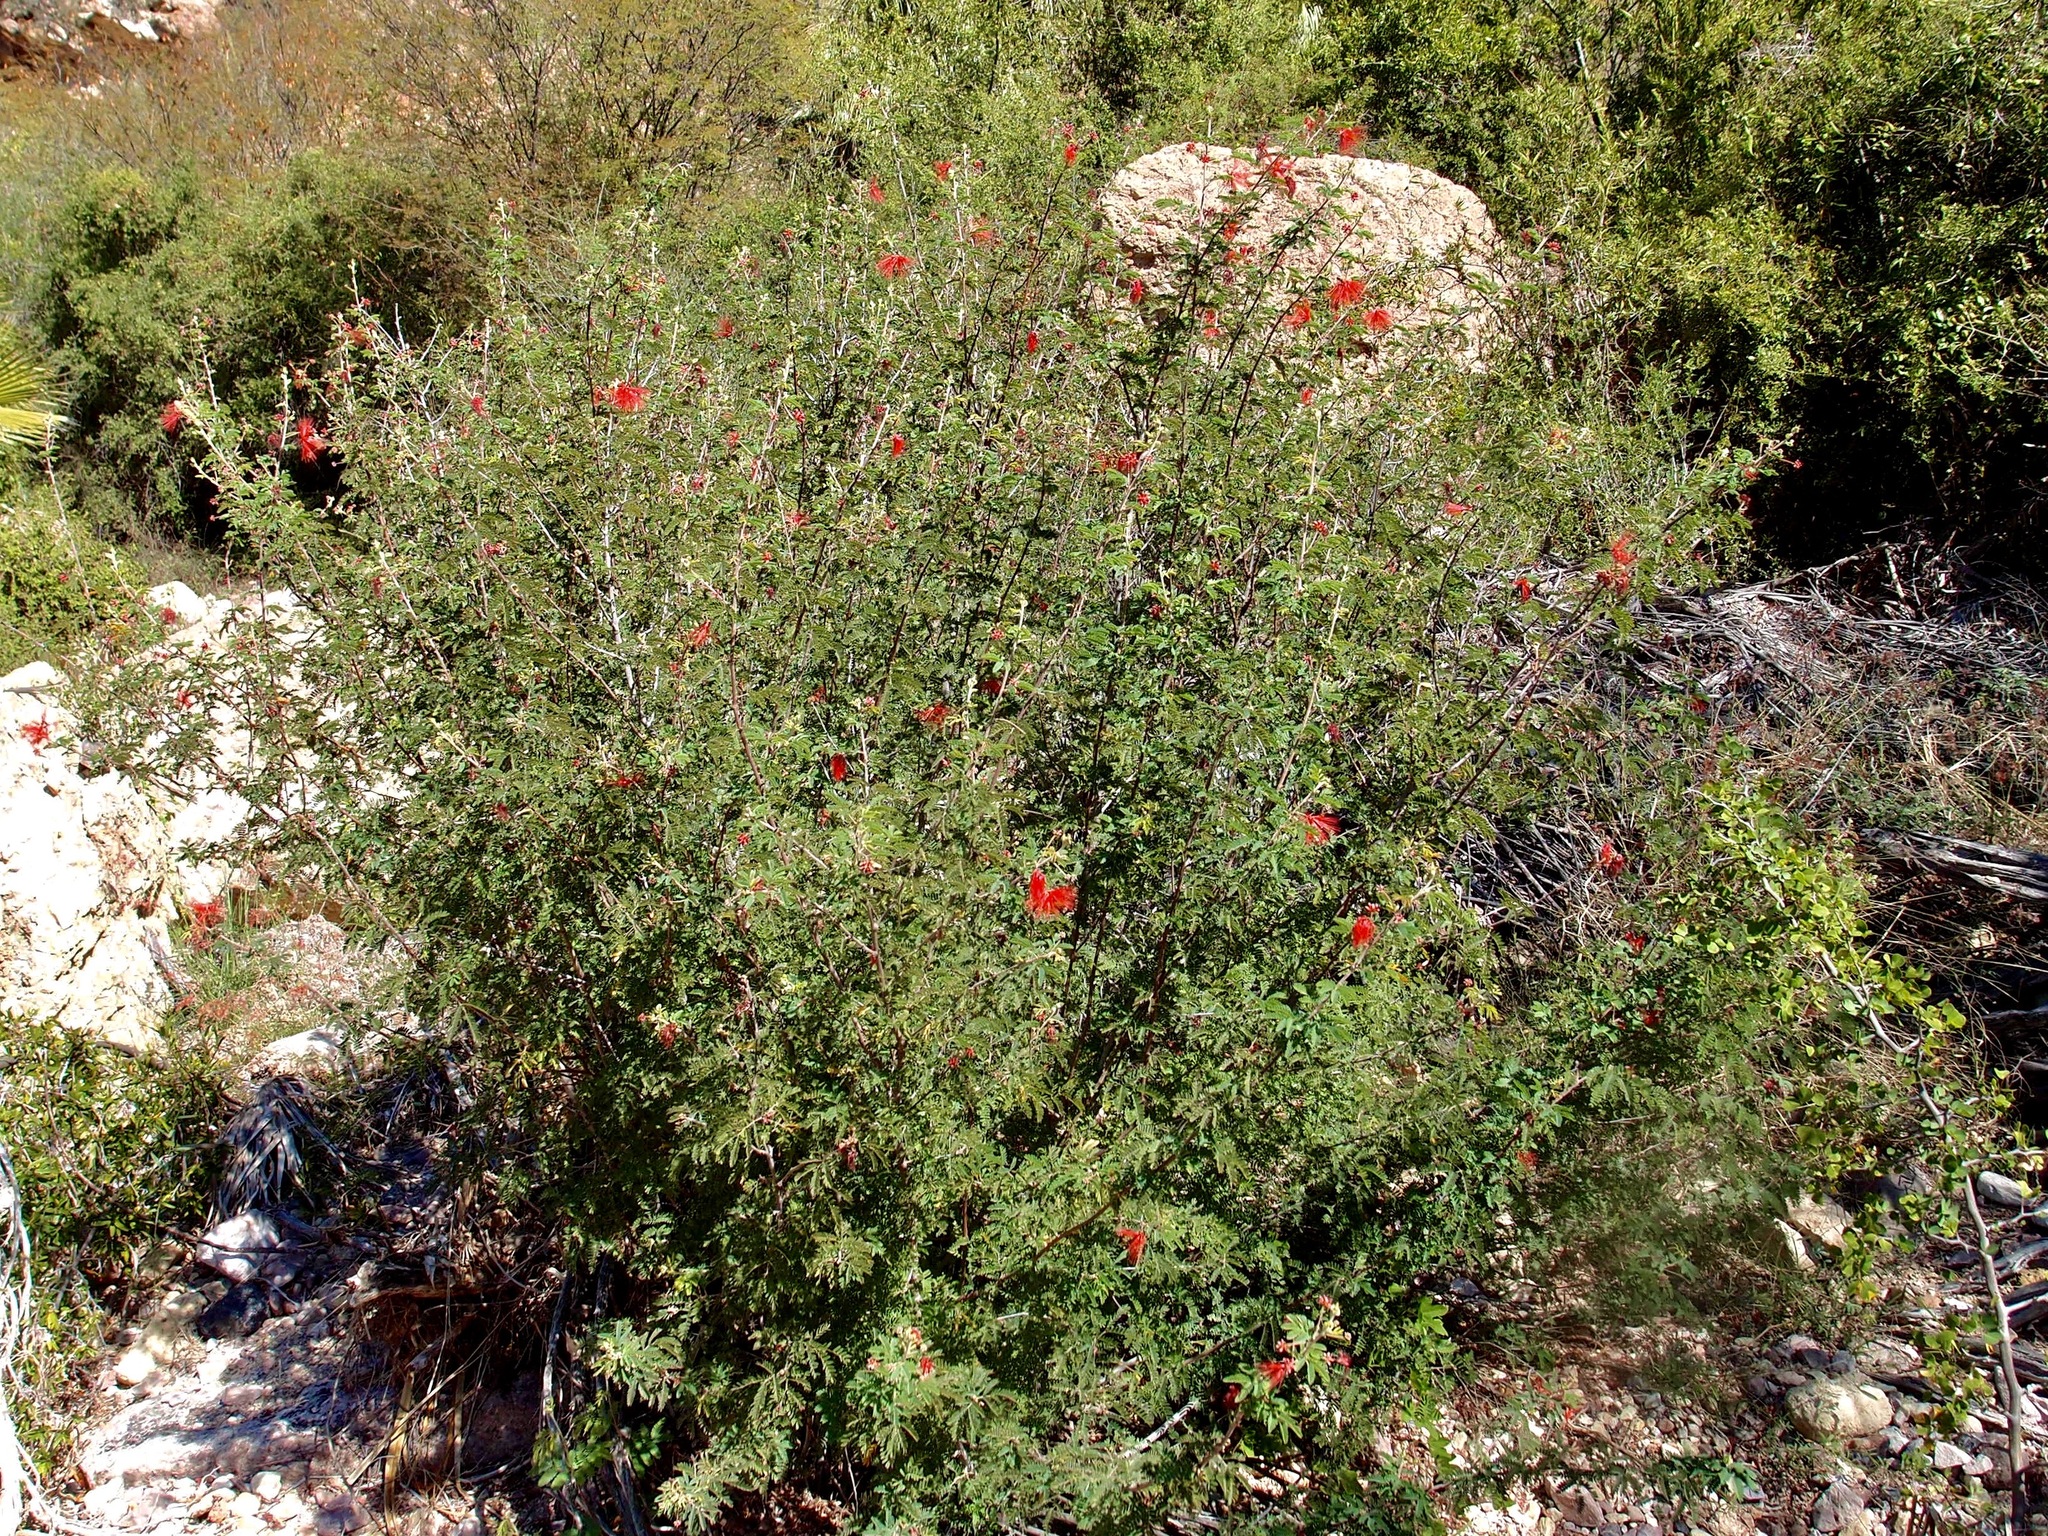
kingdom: Plantae
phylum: Tracheophyta
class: Magnoliopsida
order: Fabales
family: Fabaceae
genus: Calliandra
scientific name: Calliandra californica
